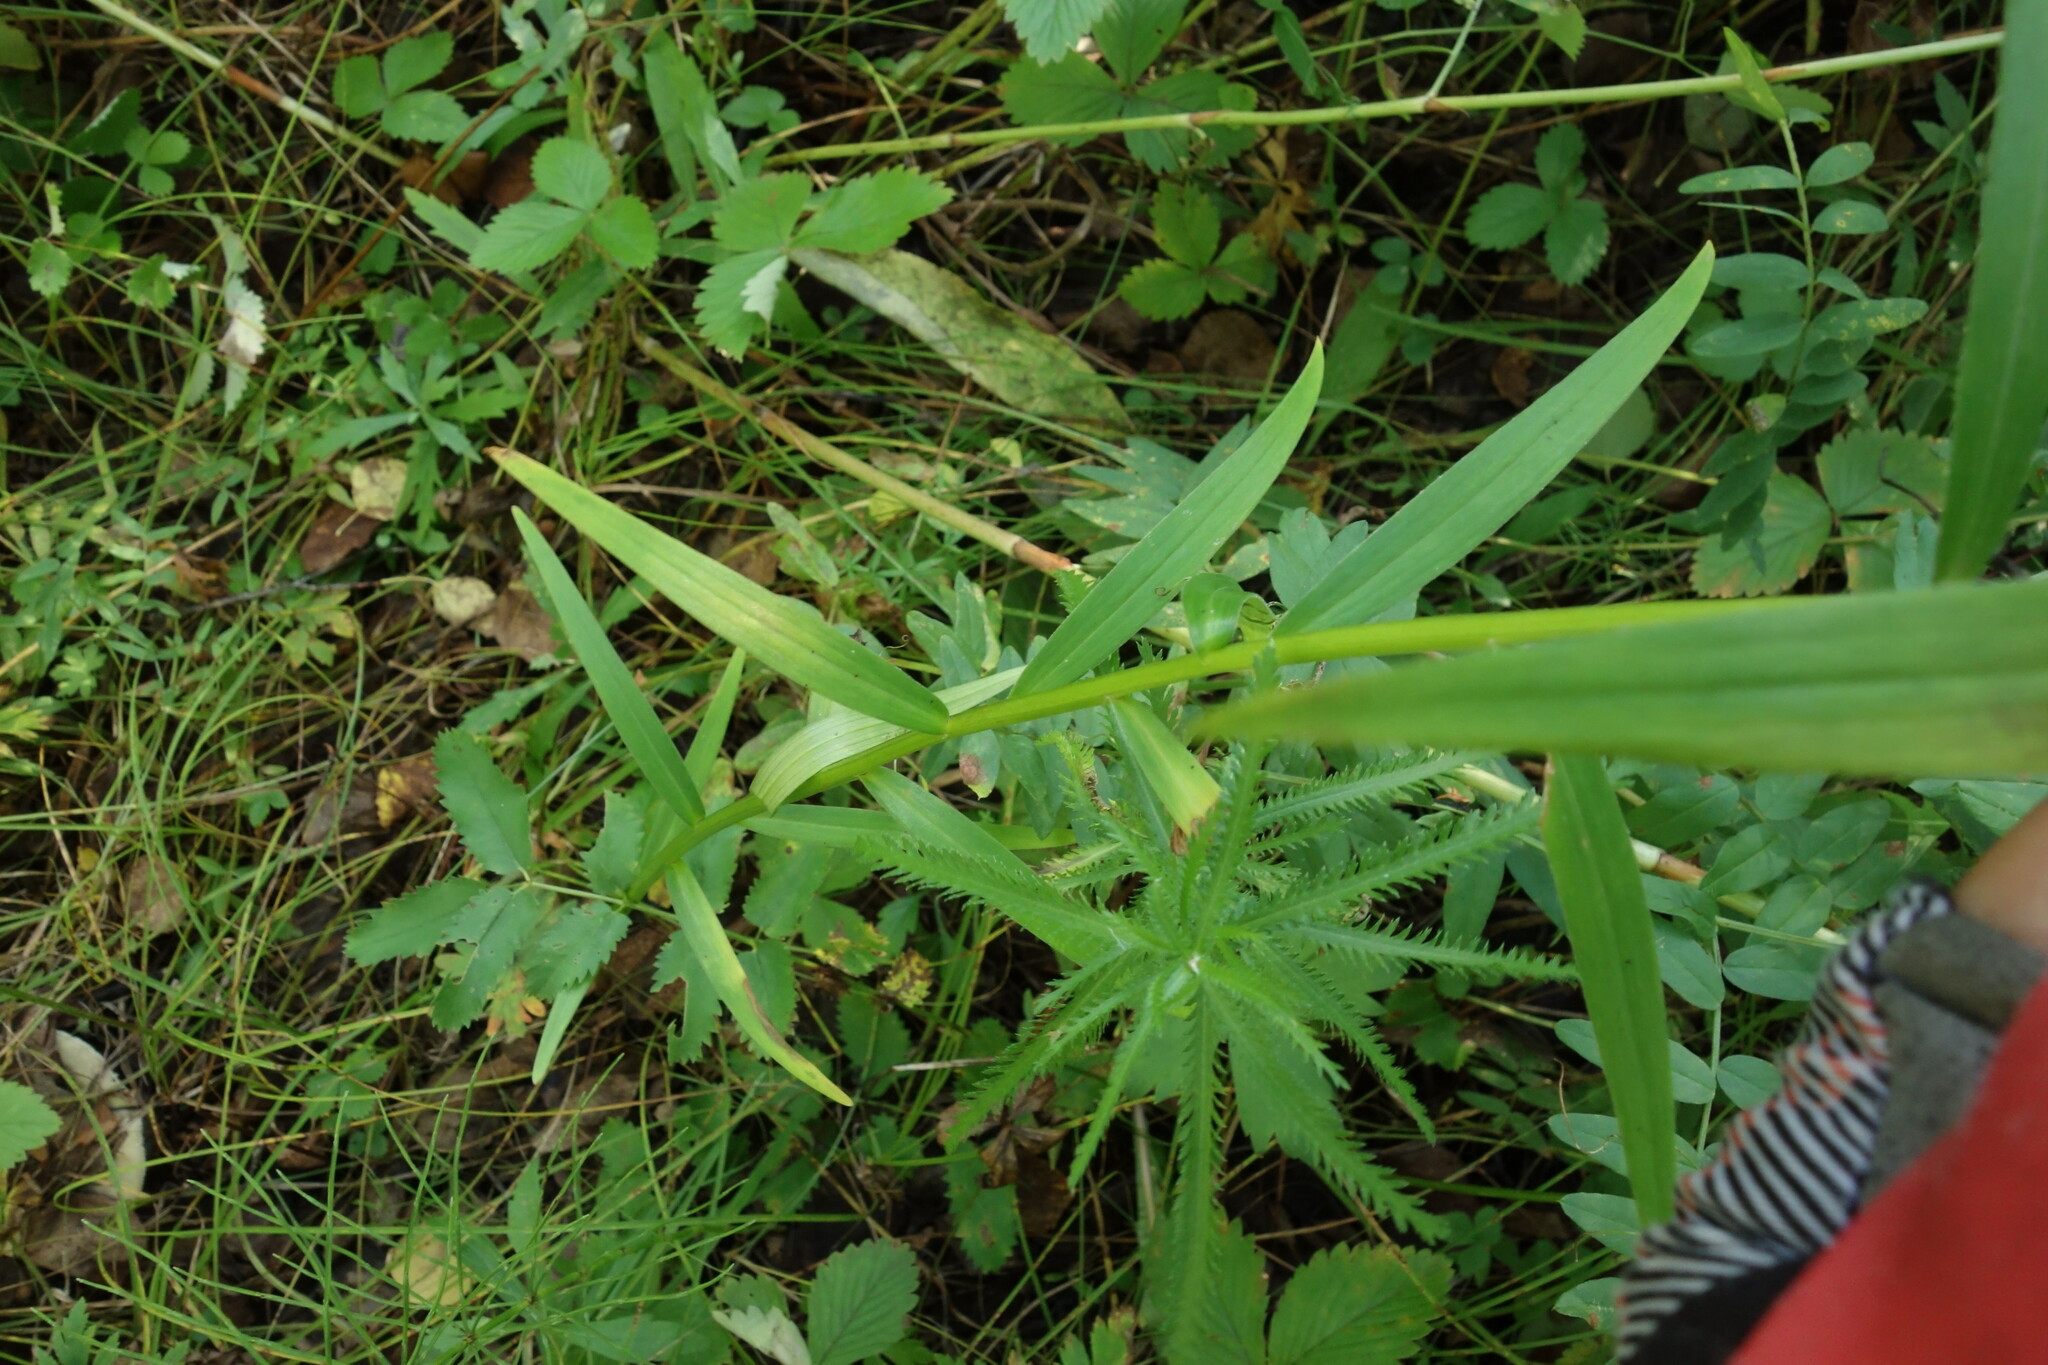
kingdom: Plantae
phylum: Tracheophyta
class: Liliopsida
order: Liliales
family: Liliaceae
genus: Lilium
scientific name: Lilium pensylvanicum
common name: Candlestick lily
